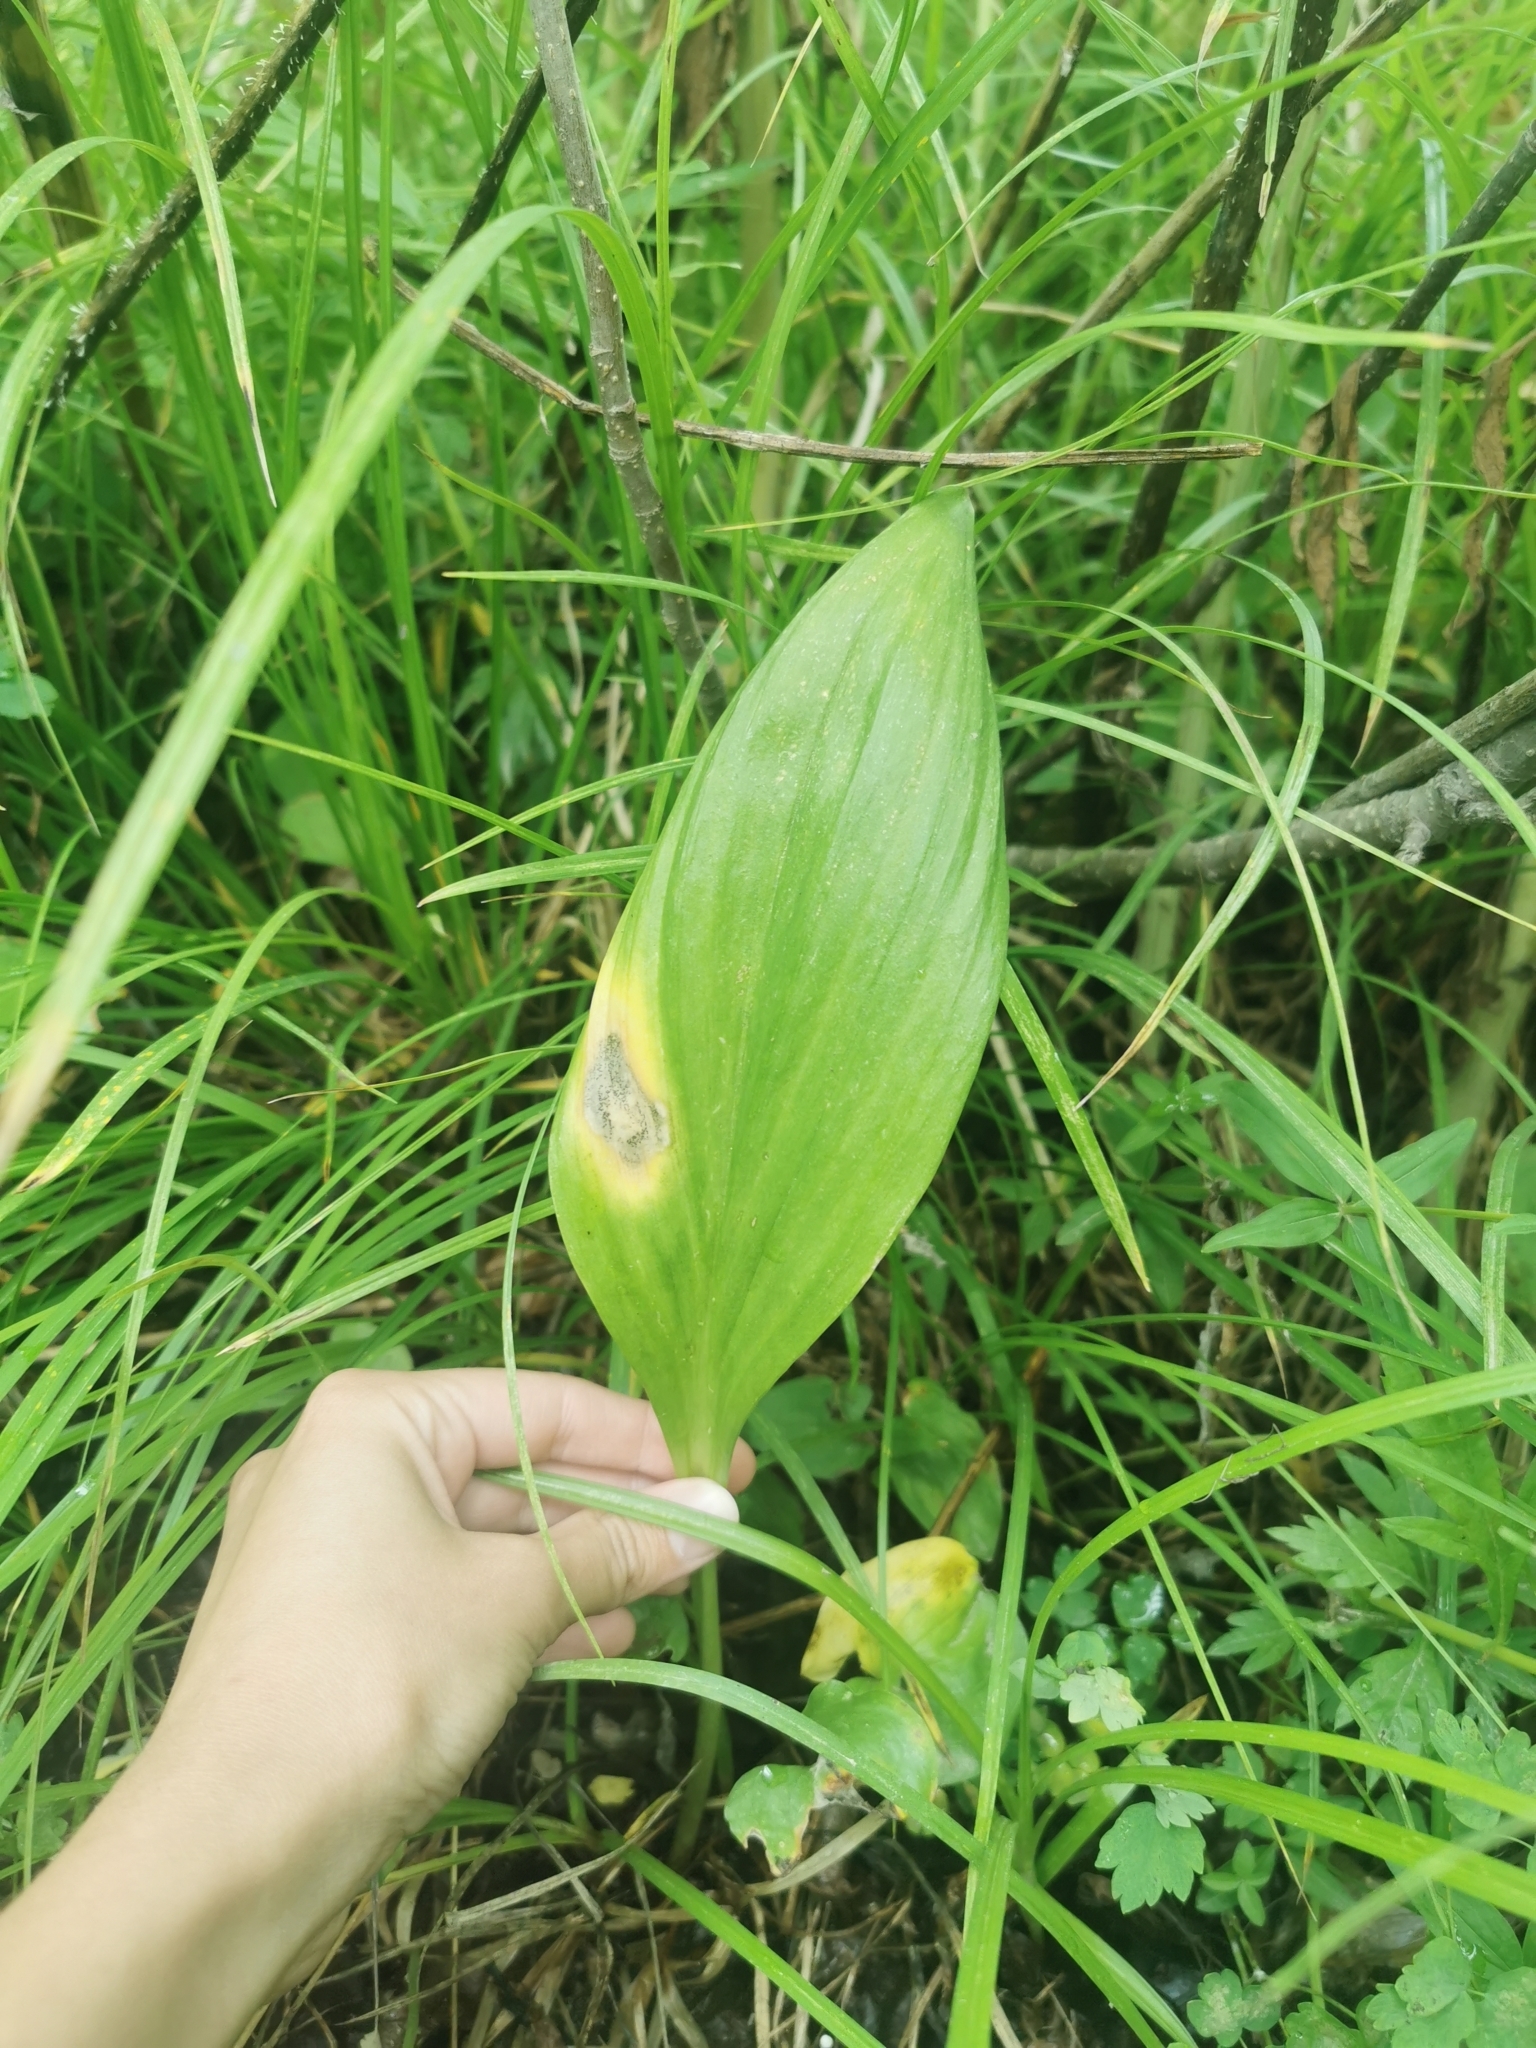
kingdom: Plantae
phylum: Tracheophyta
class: Liliopsida
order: Asparagales
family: Amaryllidaceae
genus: Allium
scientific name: Allium ochotense
